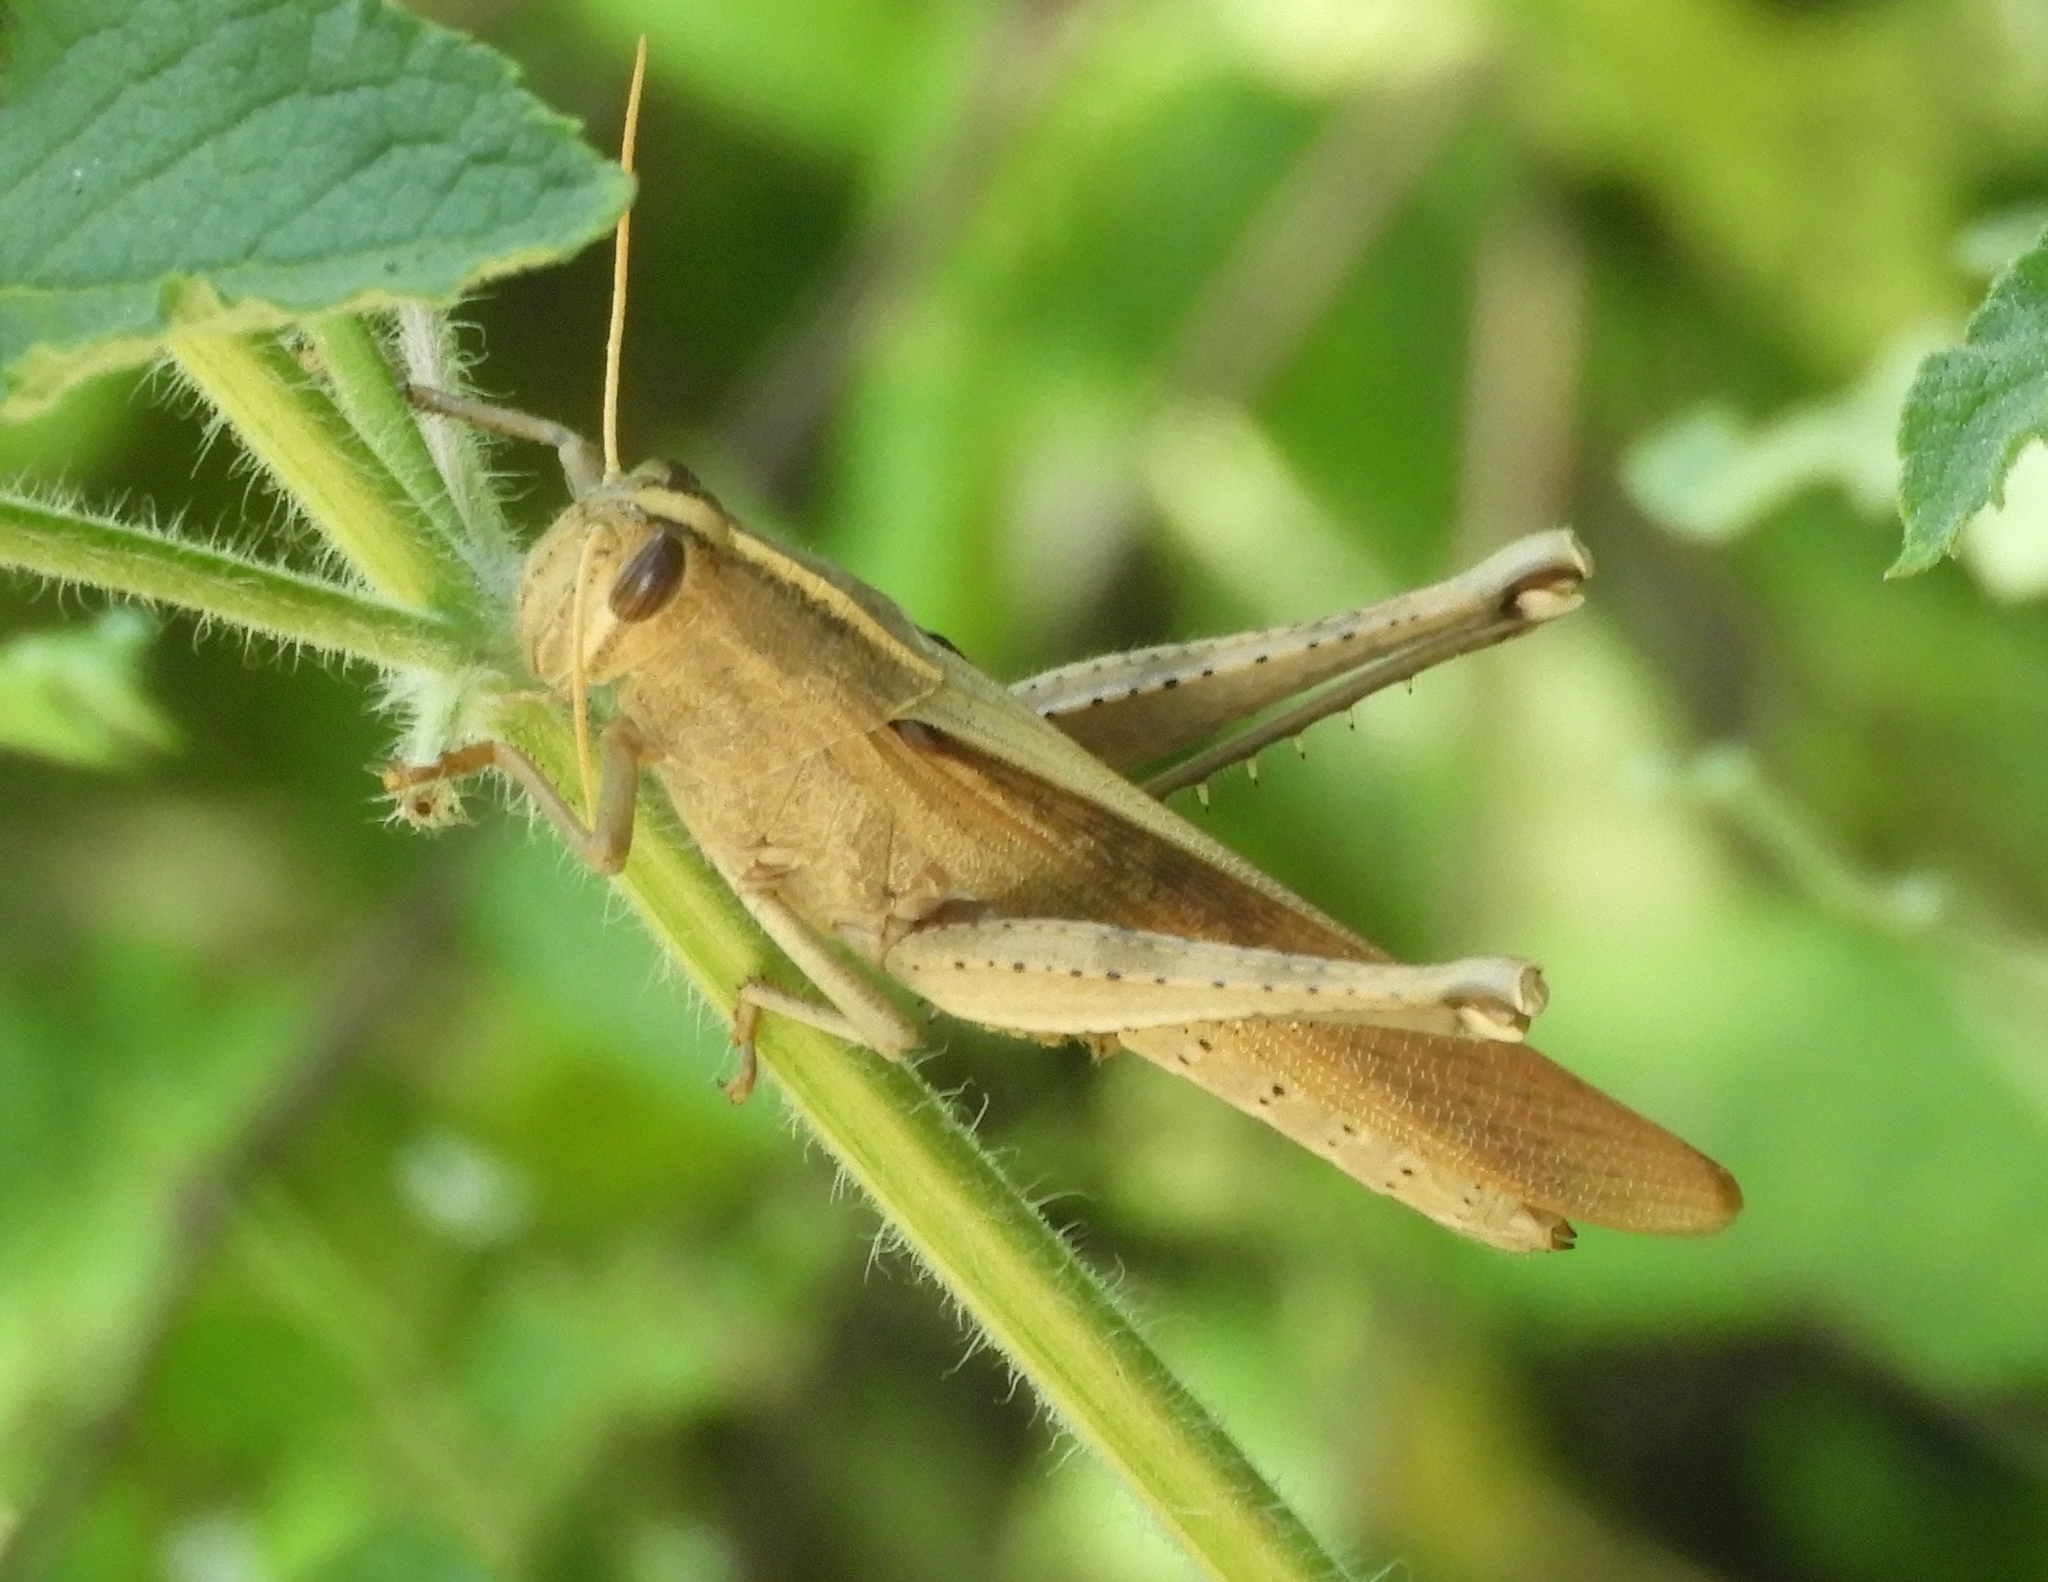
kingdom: Animalia
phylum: Arthropoda
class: Insecta
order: Orthoptera
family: Acrididae
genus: Schistocerca
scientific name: Schistocerca camerata
